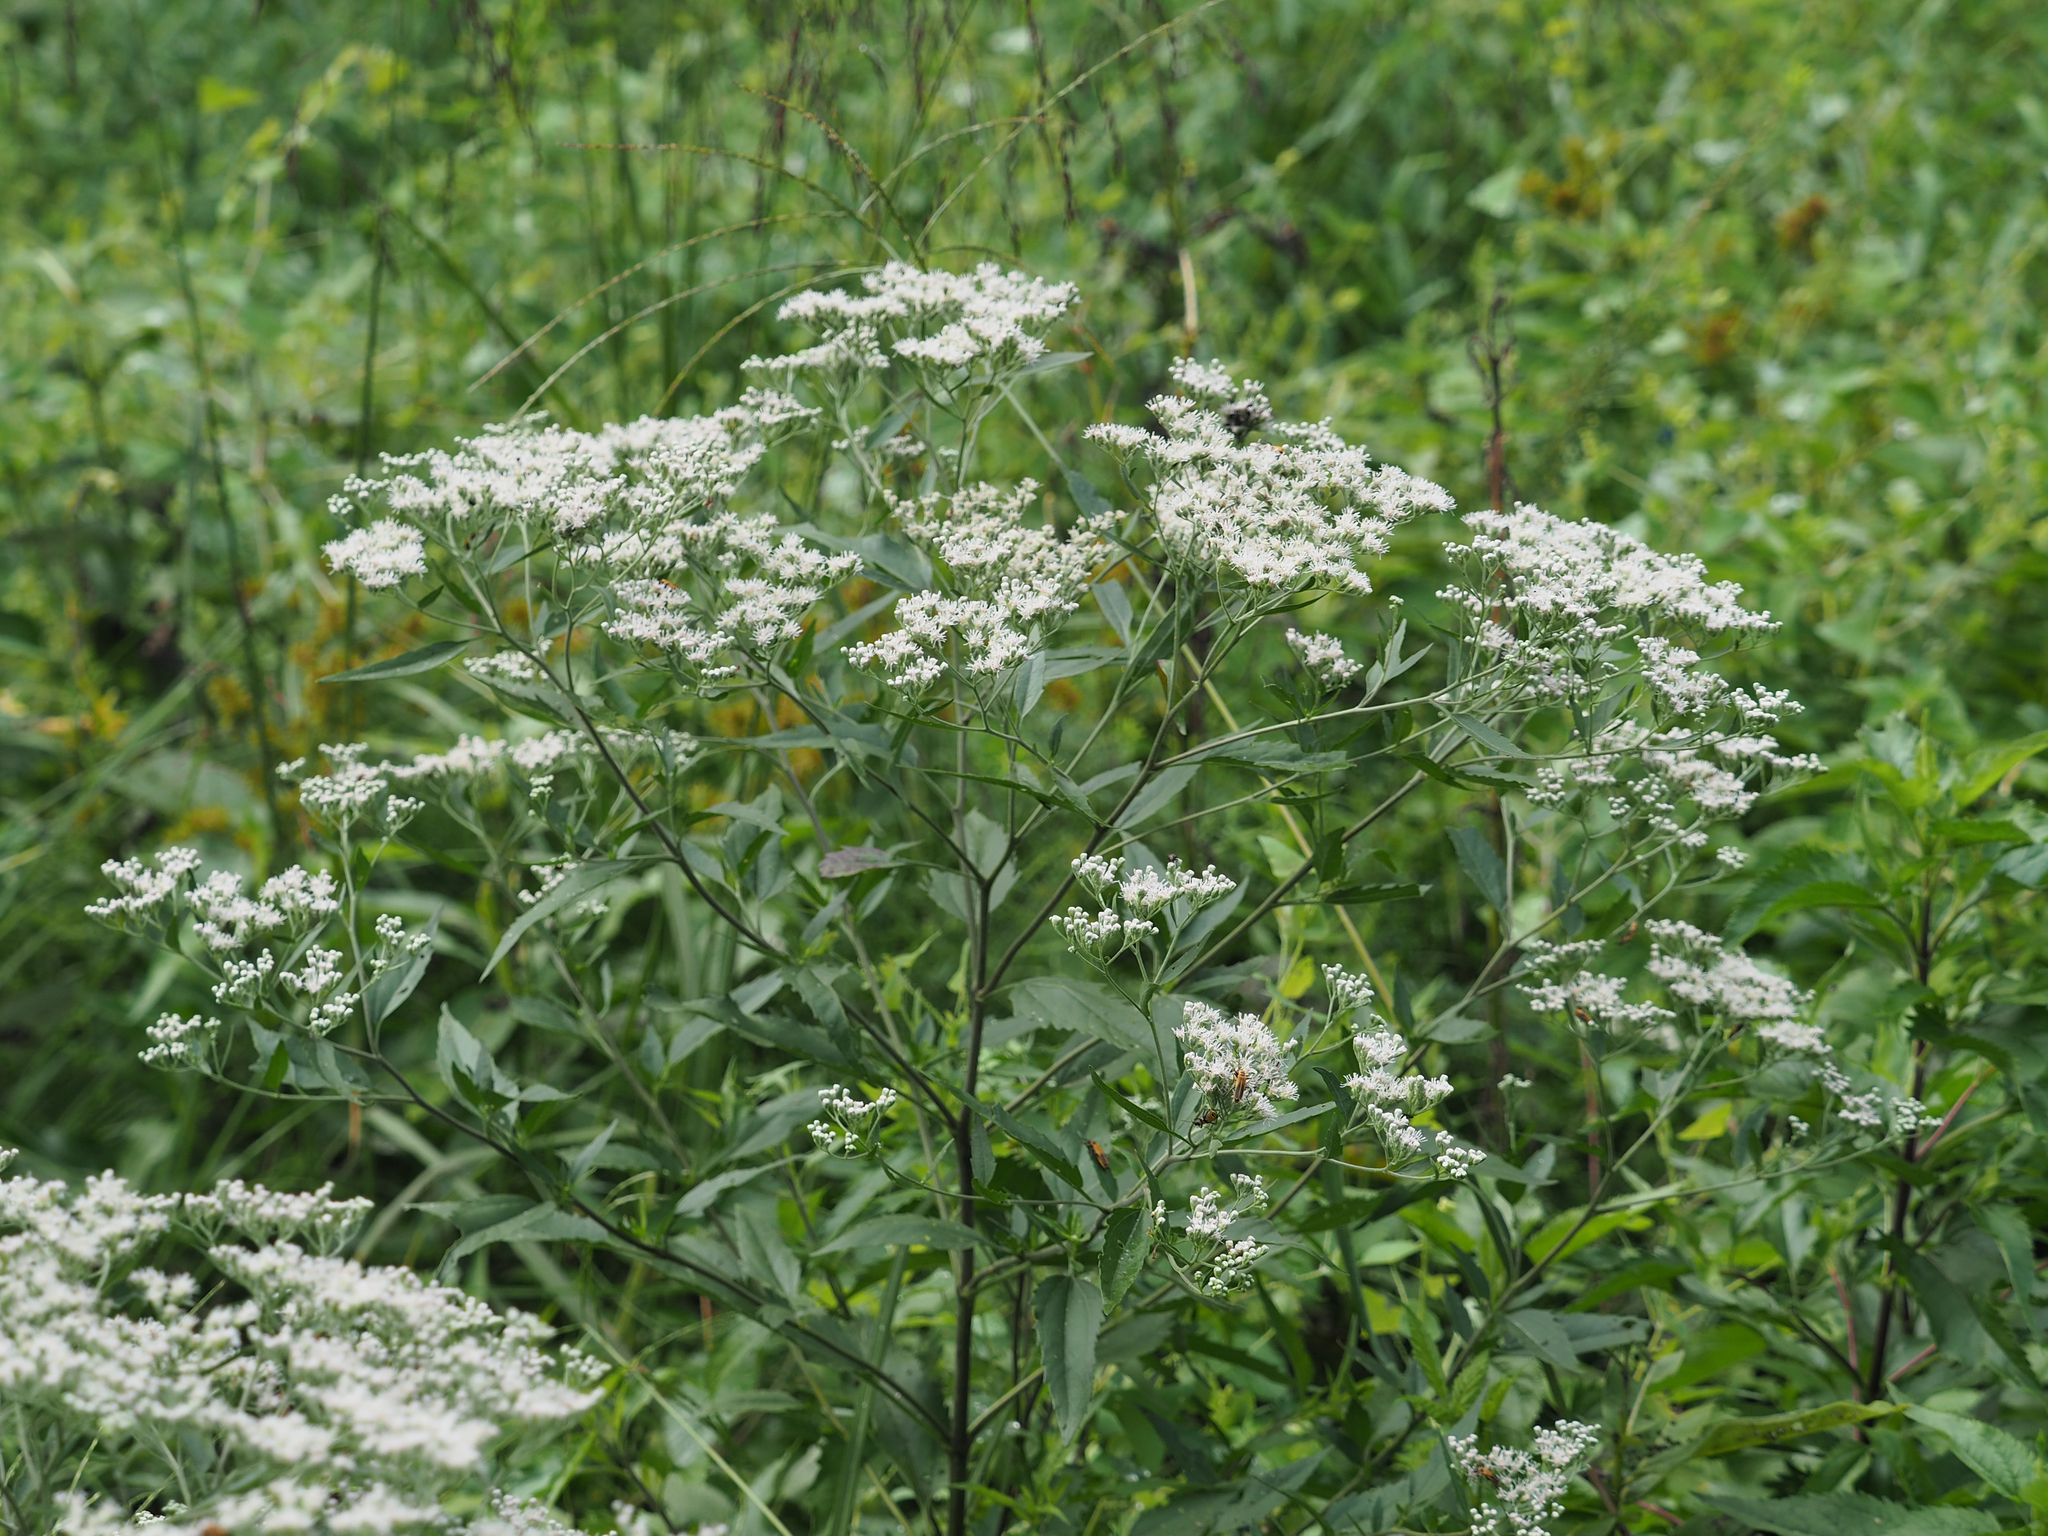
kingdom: Plantae
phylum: Tracheophyta
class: Magnoliopsida
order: Asterales
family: Asteraceae
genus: Eupatorium
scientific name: Eupatorium serotinum
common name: Late boneset
